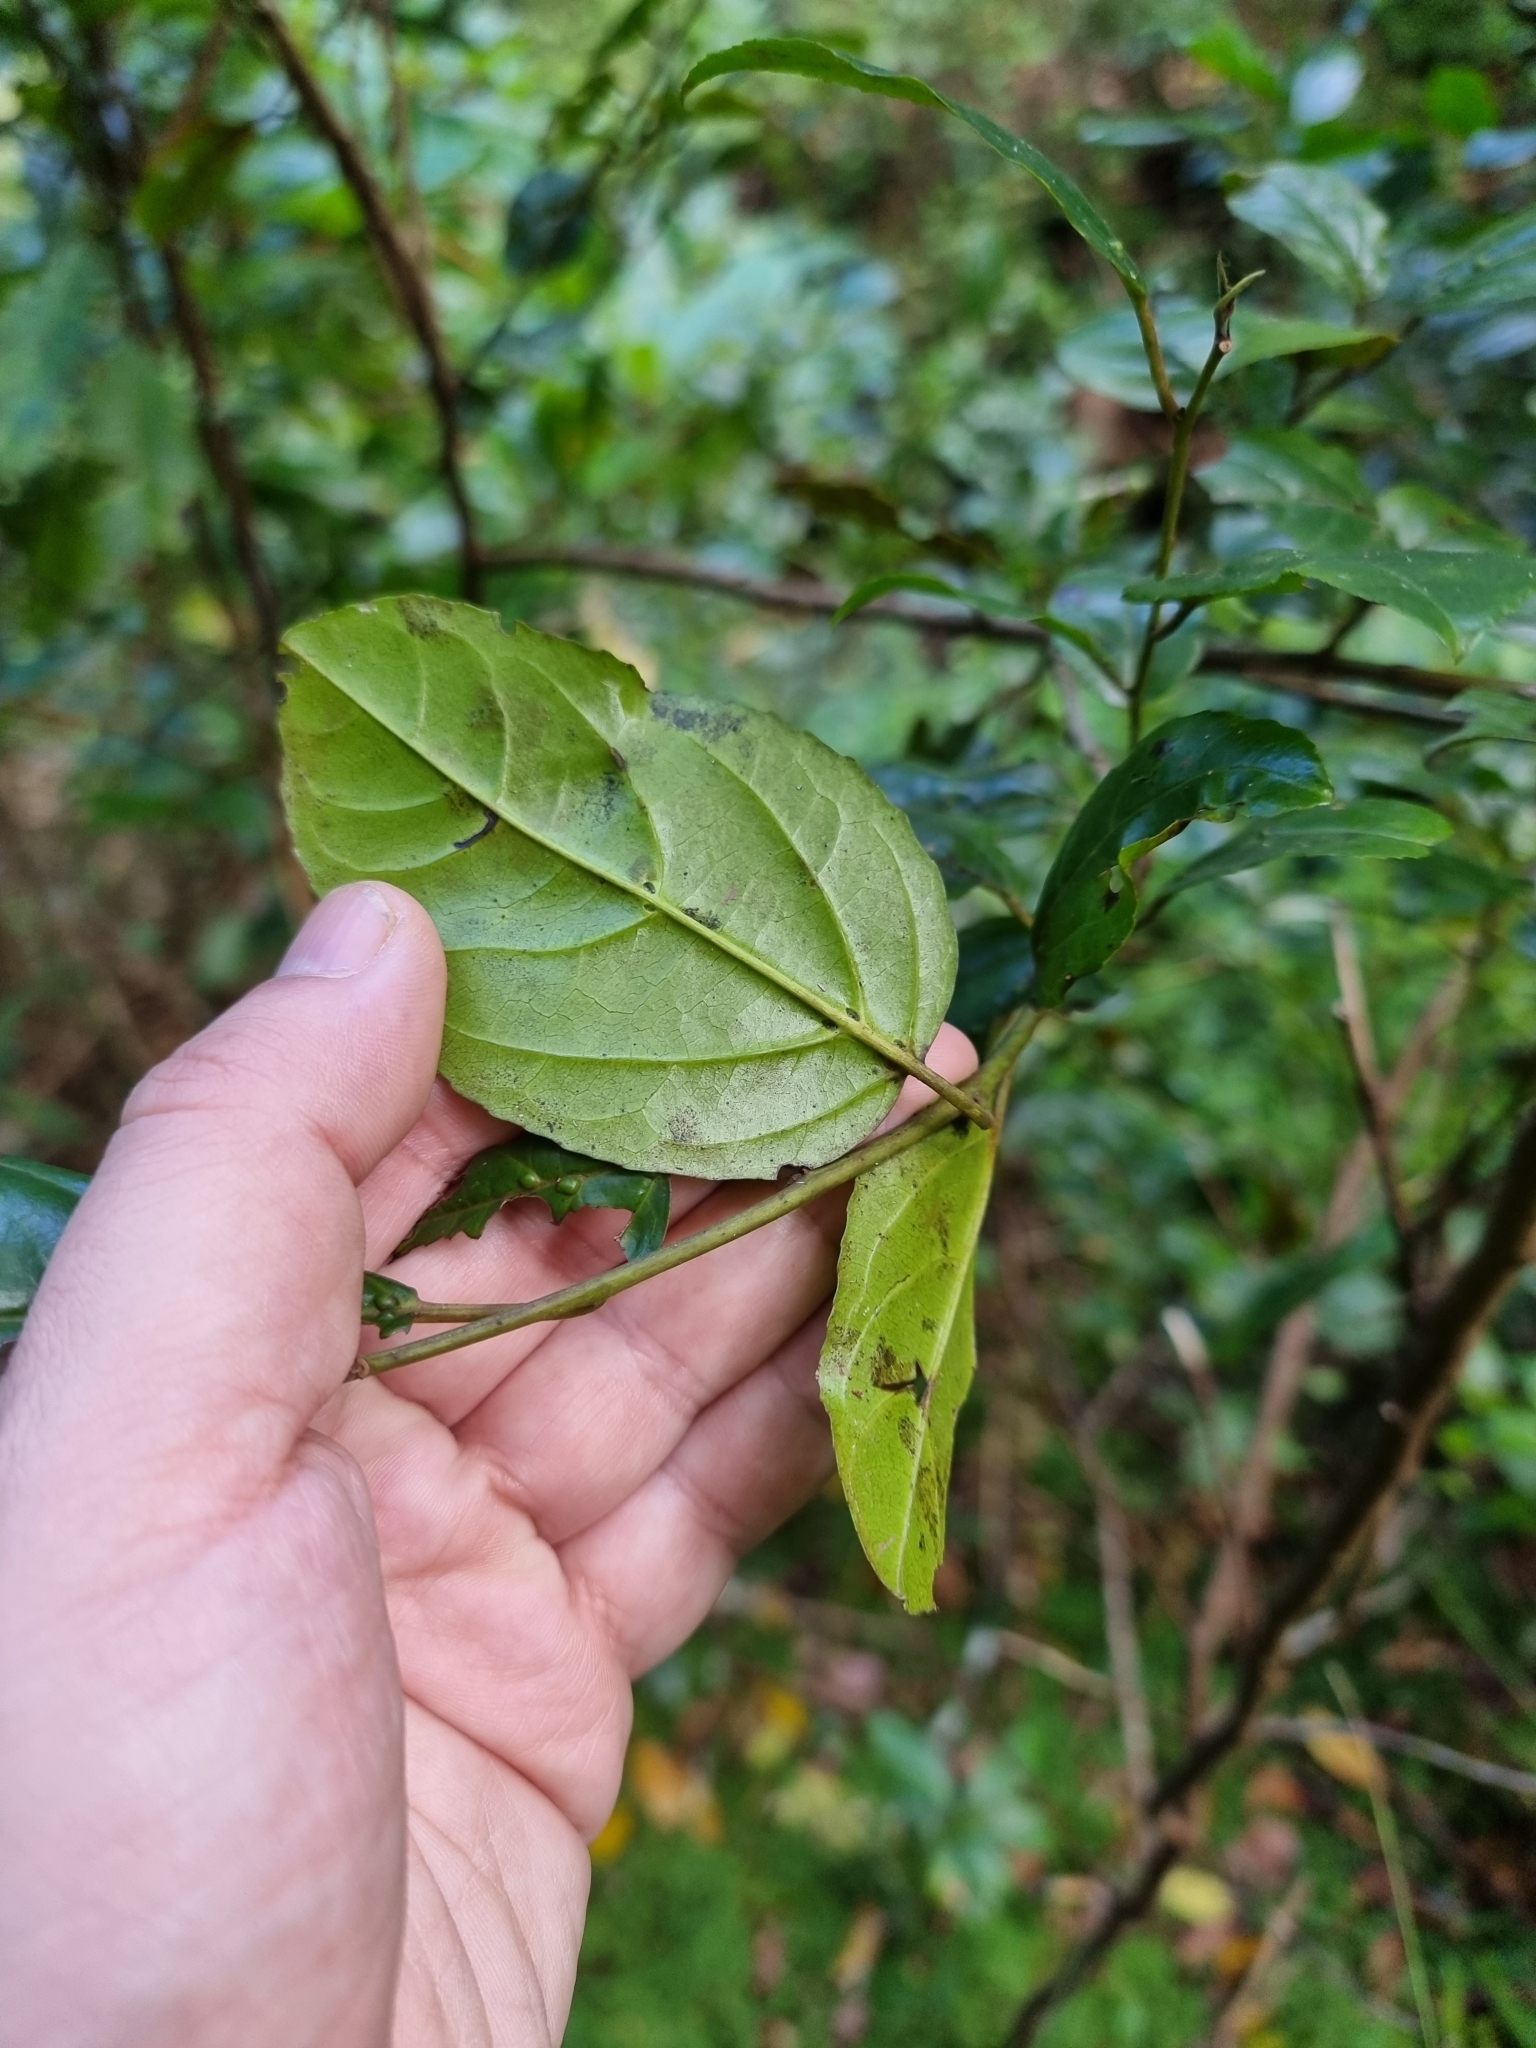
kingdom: Plantae
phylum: Tracheophyta
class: Magnoliopsida
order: Rosales
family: Rhamnaceae
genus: Rhamnus
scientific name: Rhamnus glandulosa
